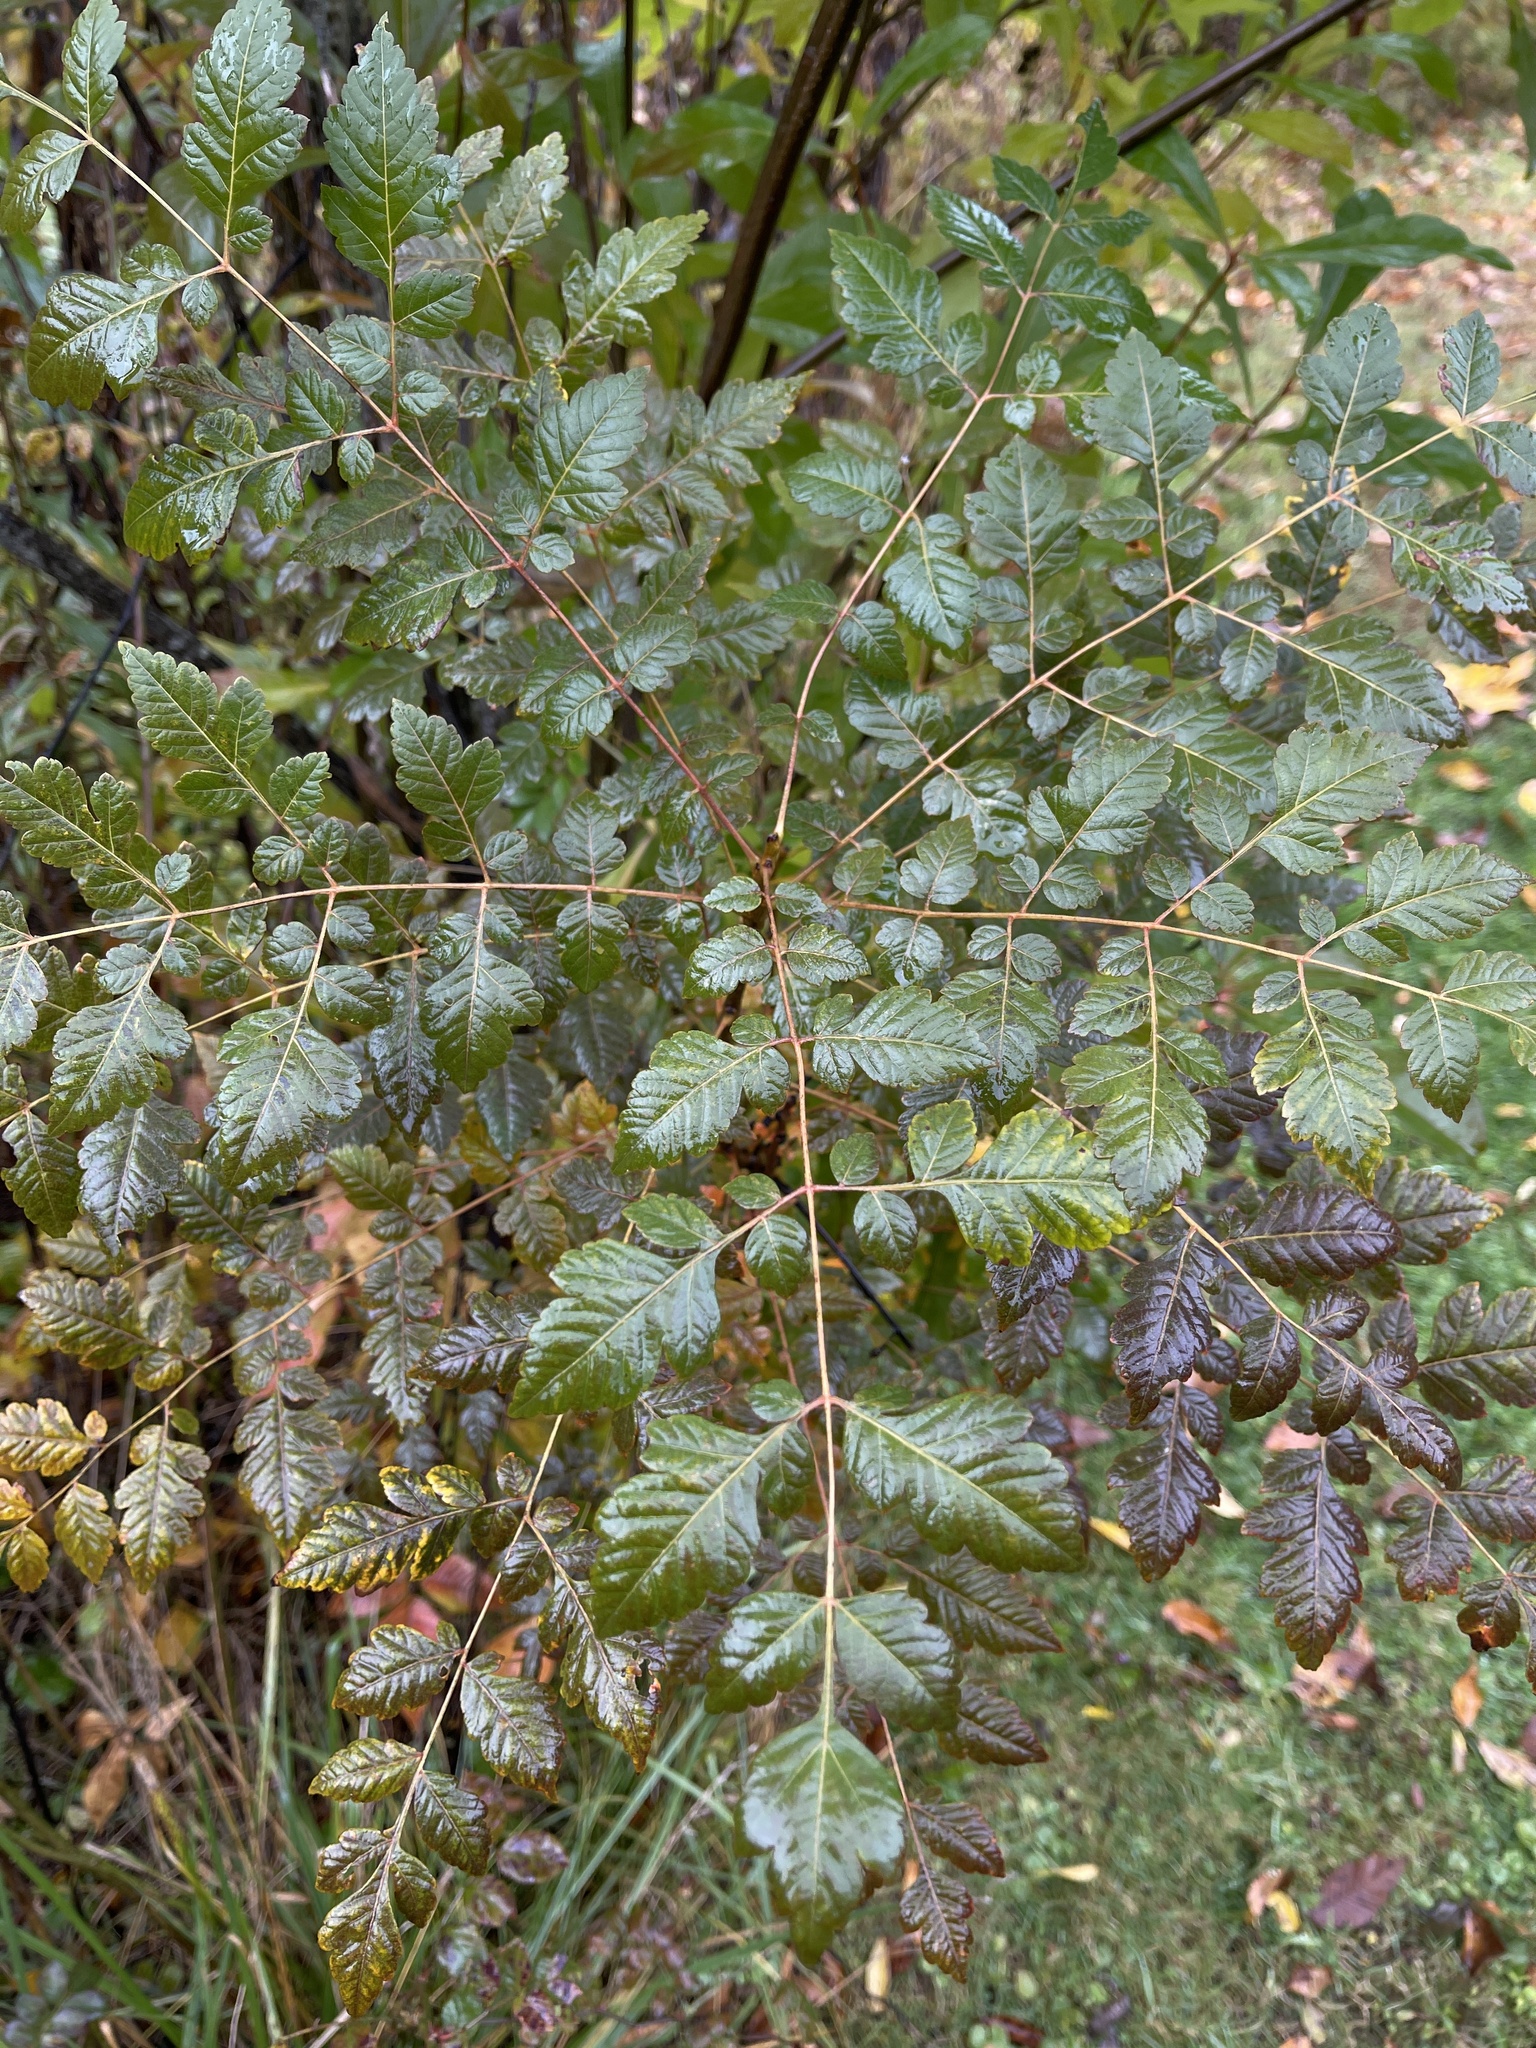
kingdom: Plantae
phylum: Tracheophyta
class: Magnoliopsida
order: Sapindales
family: Sapindaceae
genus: Koelreuteria
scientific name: Koelreuteria paniculata
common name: Pride-of-india
